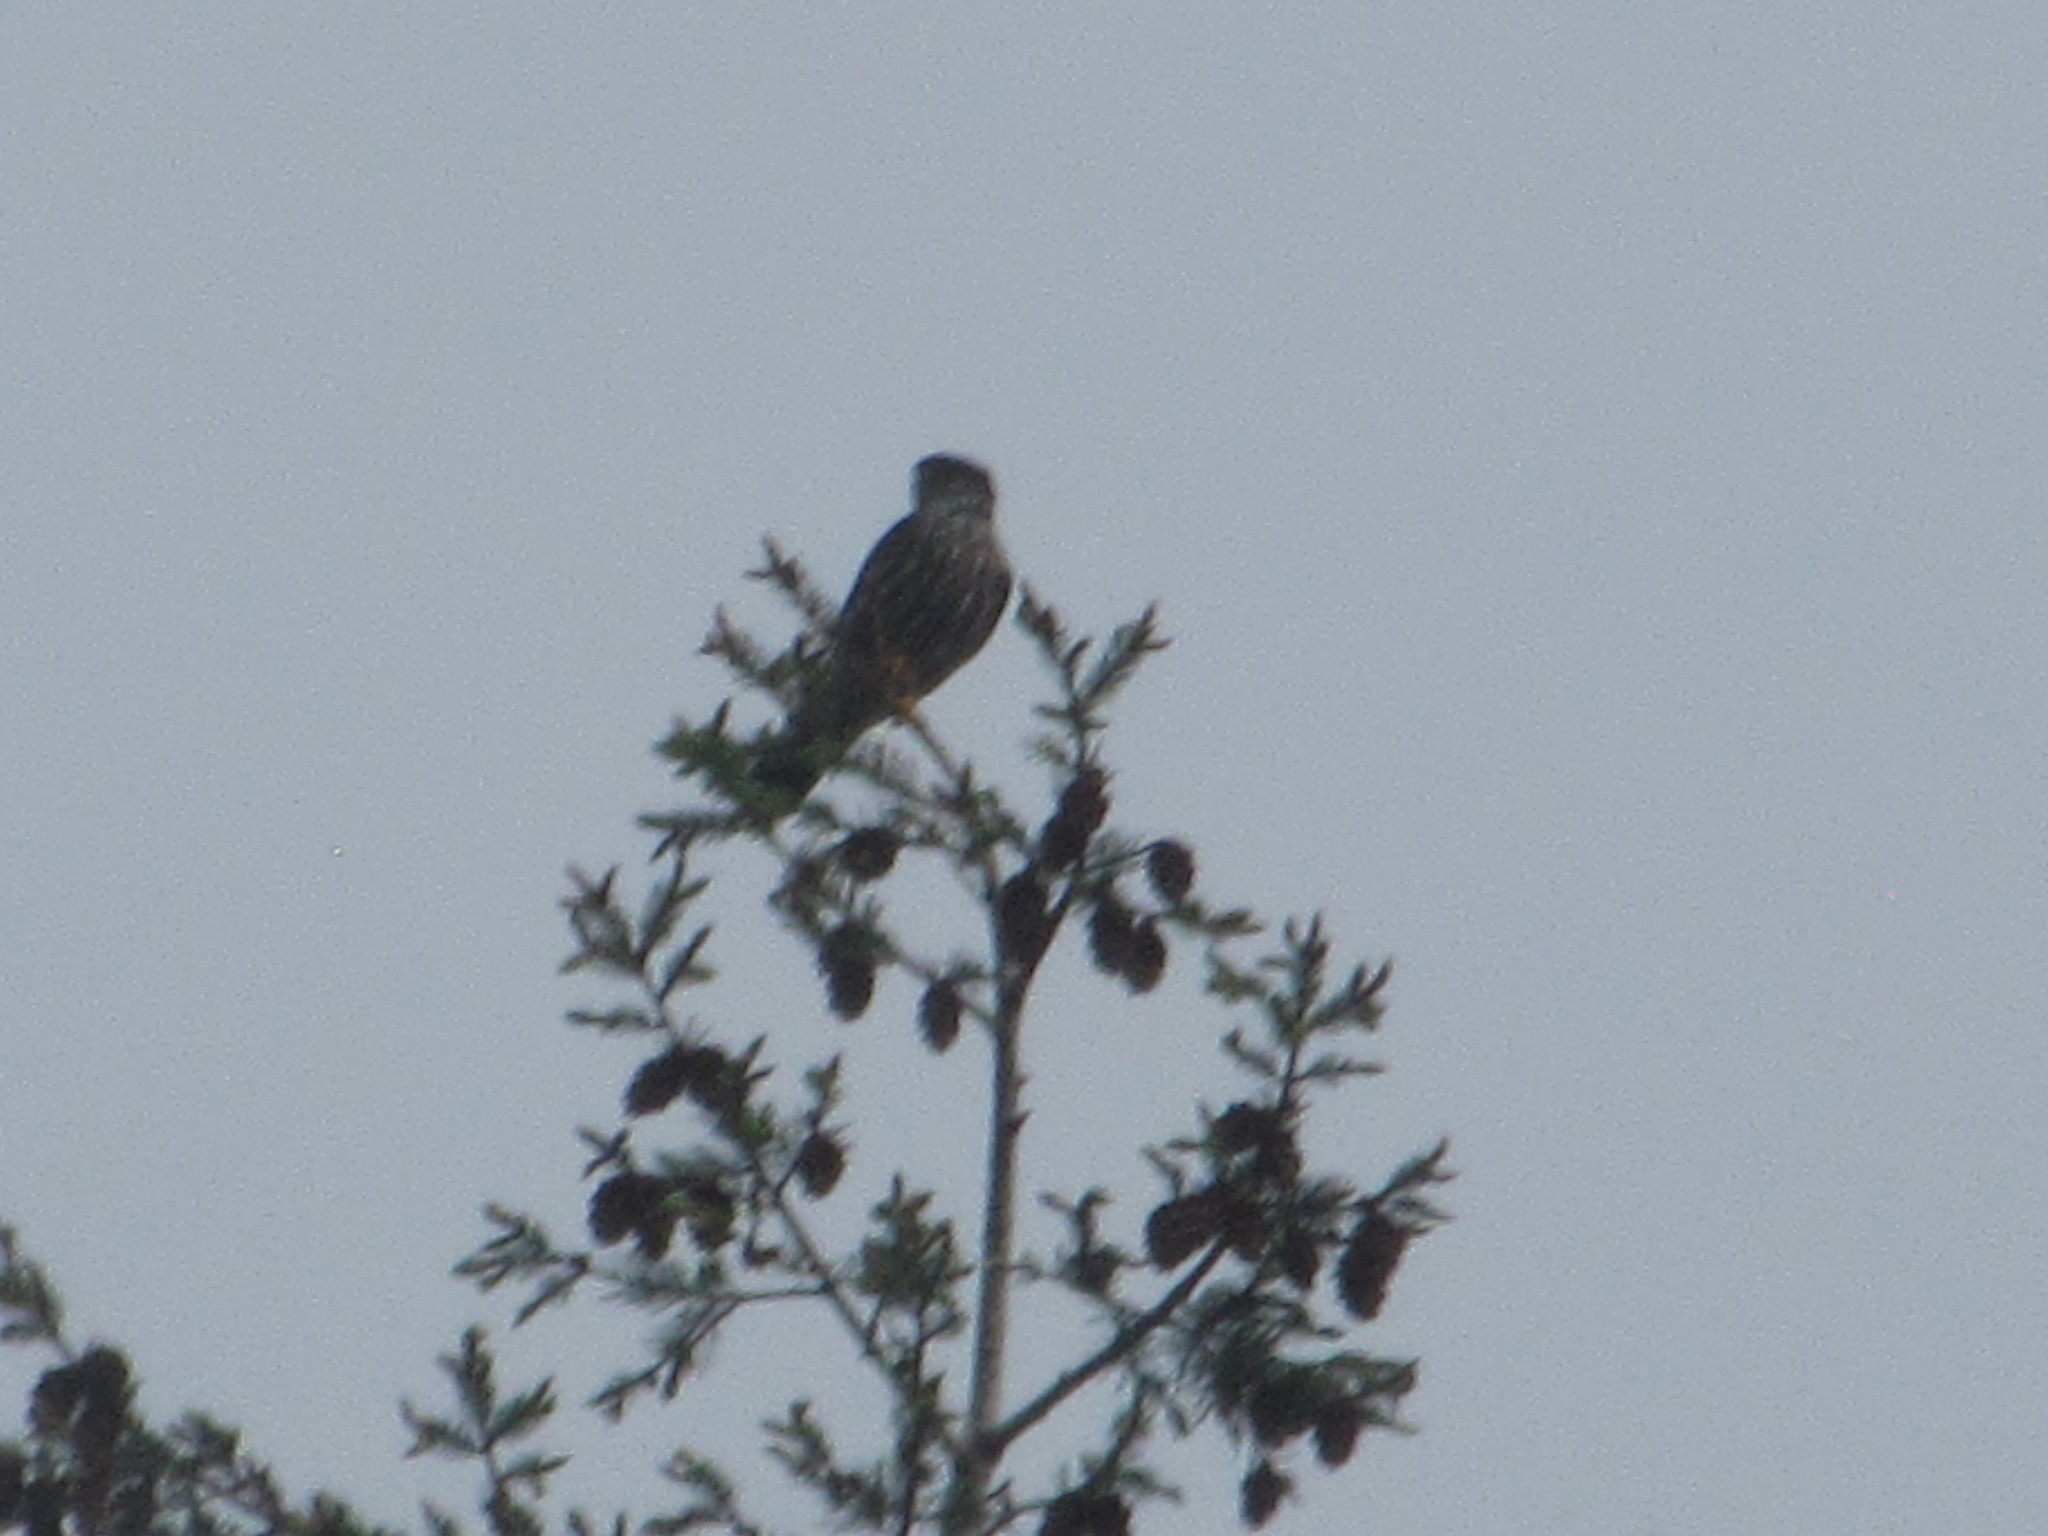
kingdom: Animalia
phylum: Chordata
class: Aves
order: Falconiformes
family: Falconidae
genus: Falco
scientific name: Falco columbarius
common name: Merlin
